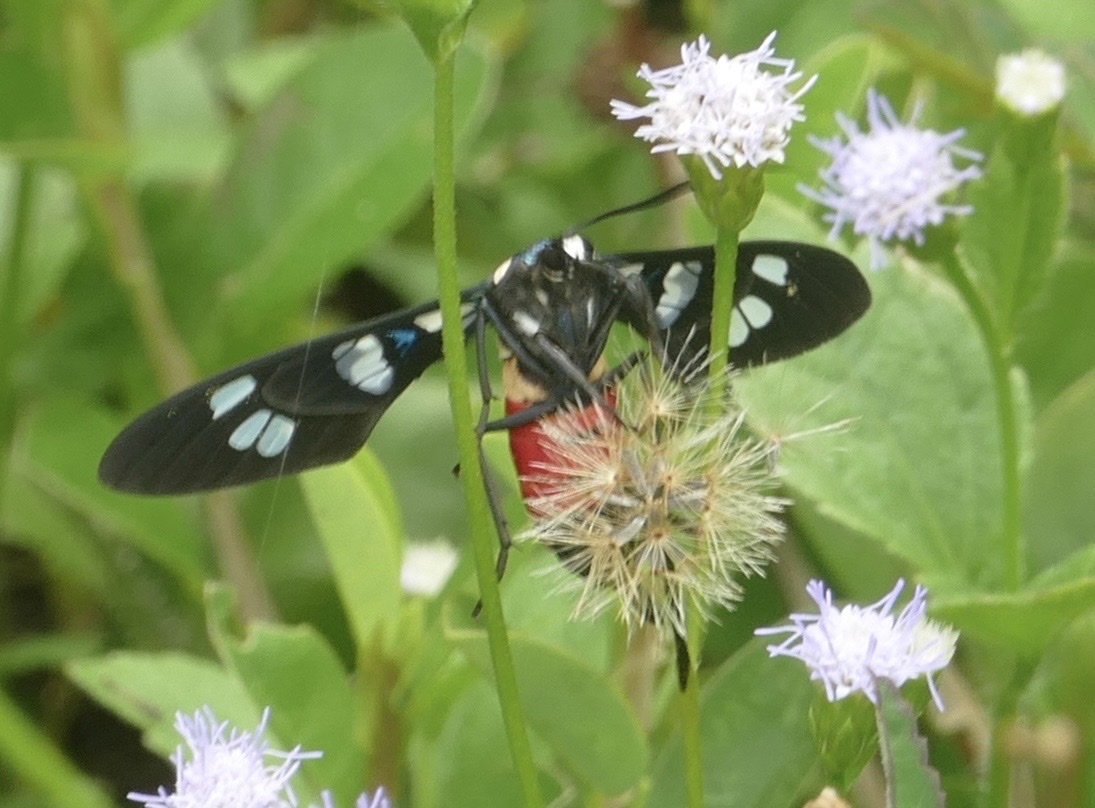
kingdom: Animalia
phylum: Arthropoda
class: Insecta
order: Lepidoptera
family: Erebidae
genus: Euchromia
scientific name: Euchromia irius
